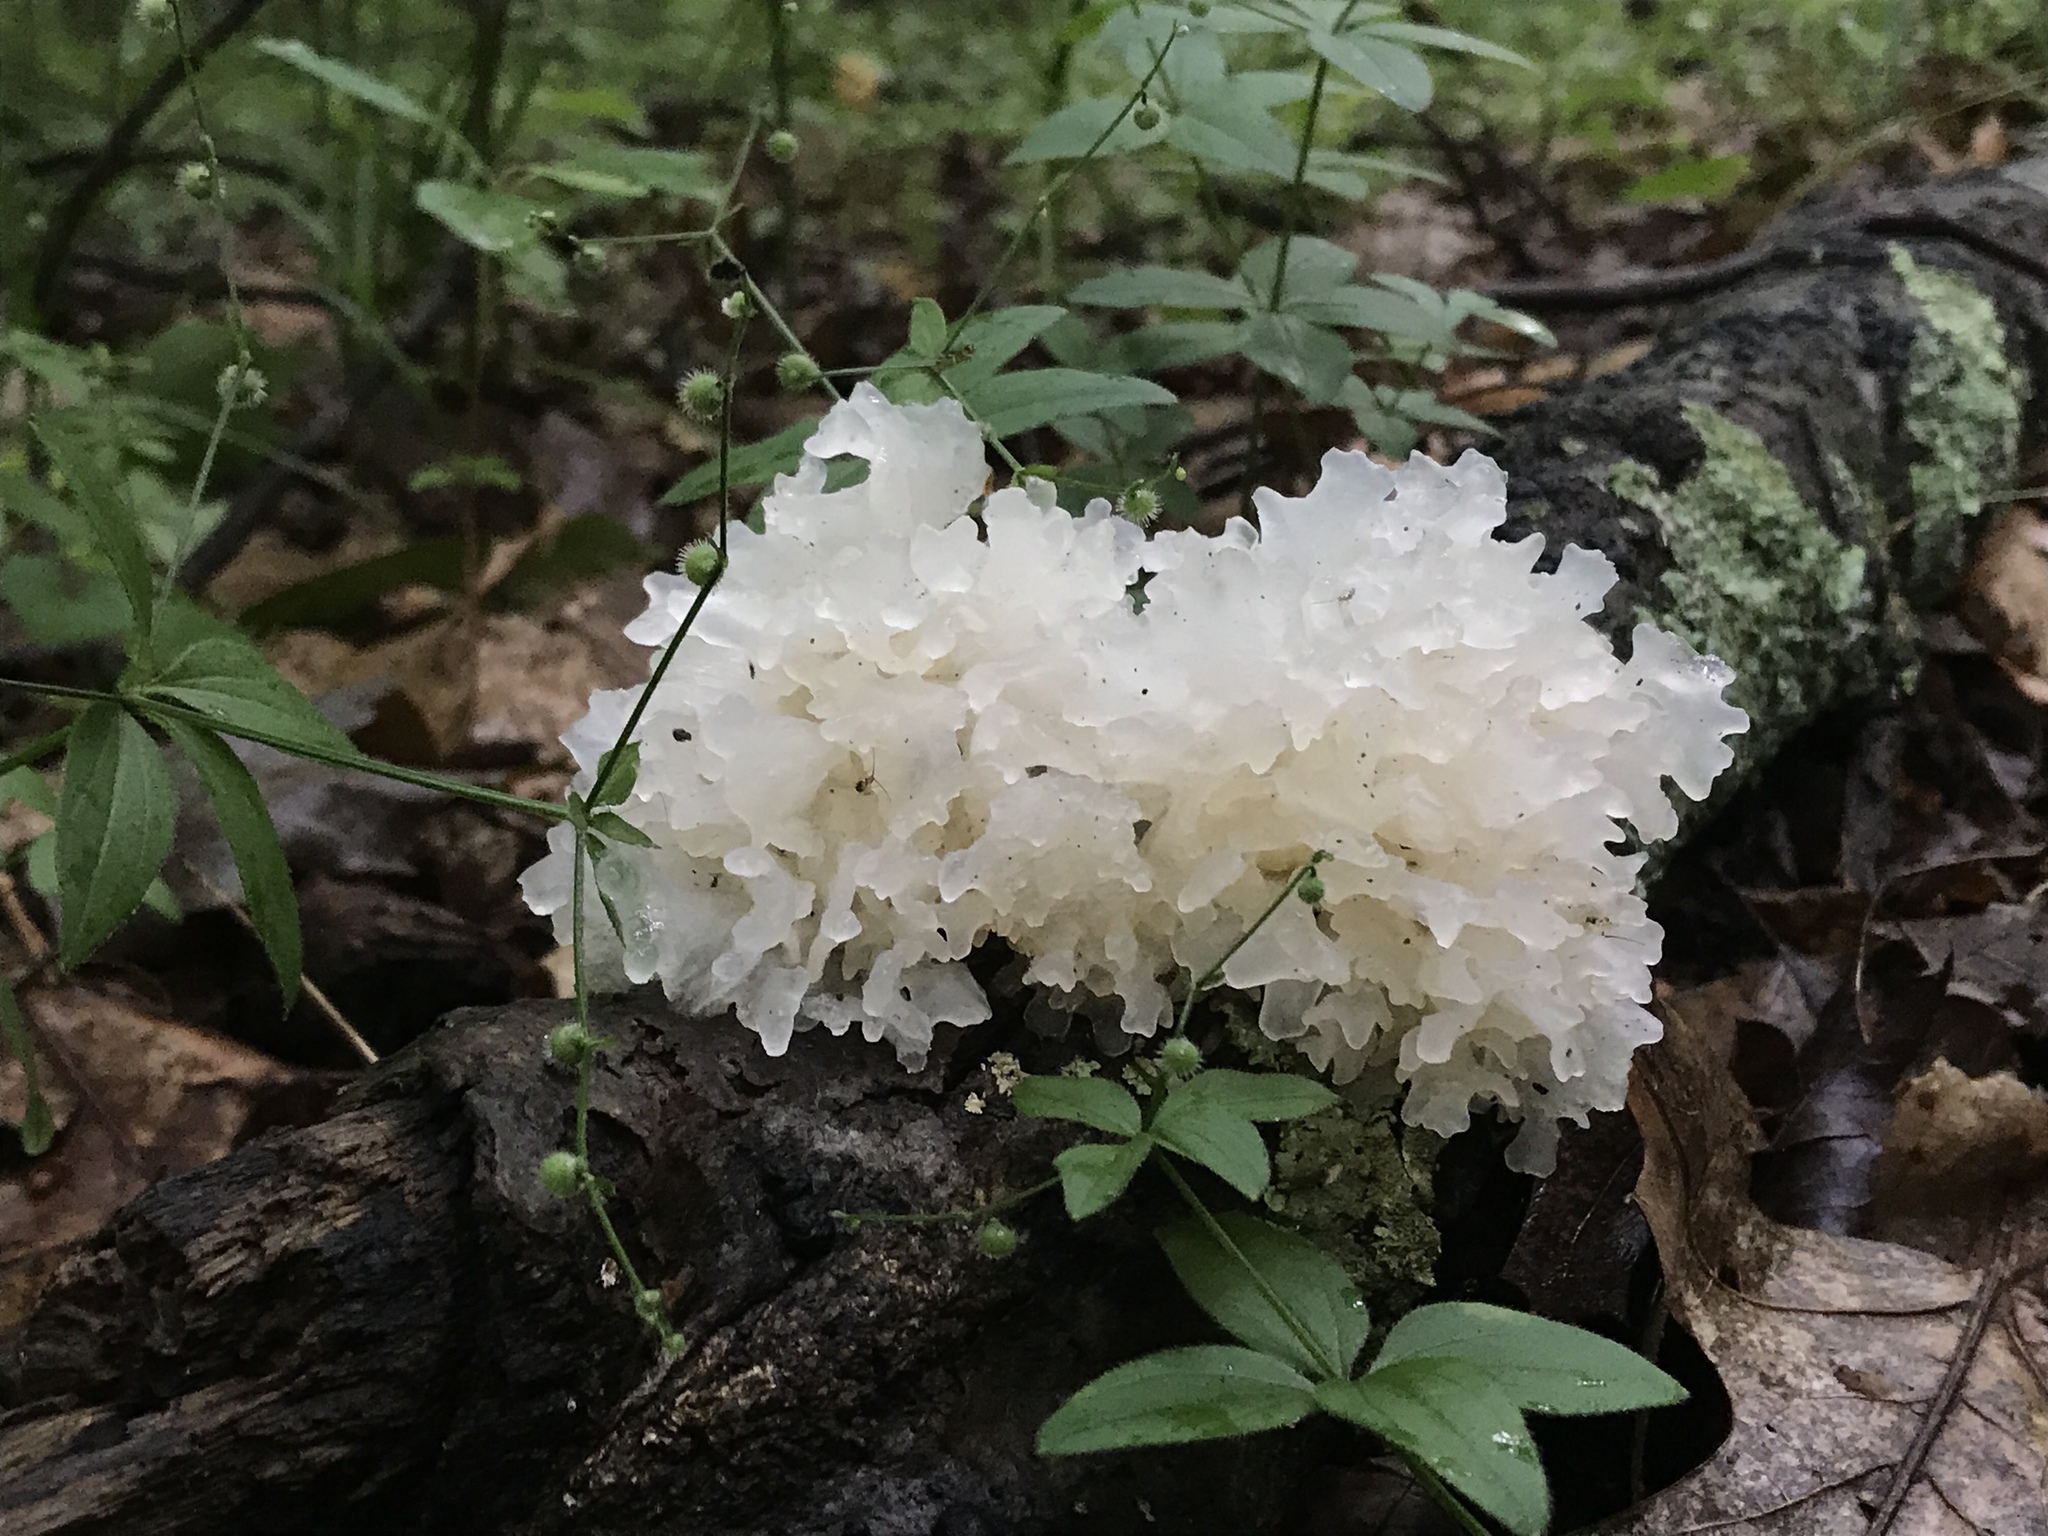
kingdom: Fungi
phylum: Basidiomycota
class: Tremellomycetes
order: Tremellales
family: Tremellaceae
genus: Tremella
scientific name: Tremella fuciformis
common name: Snow fungus
